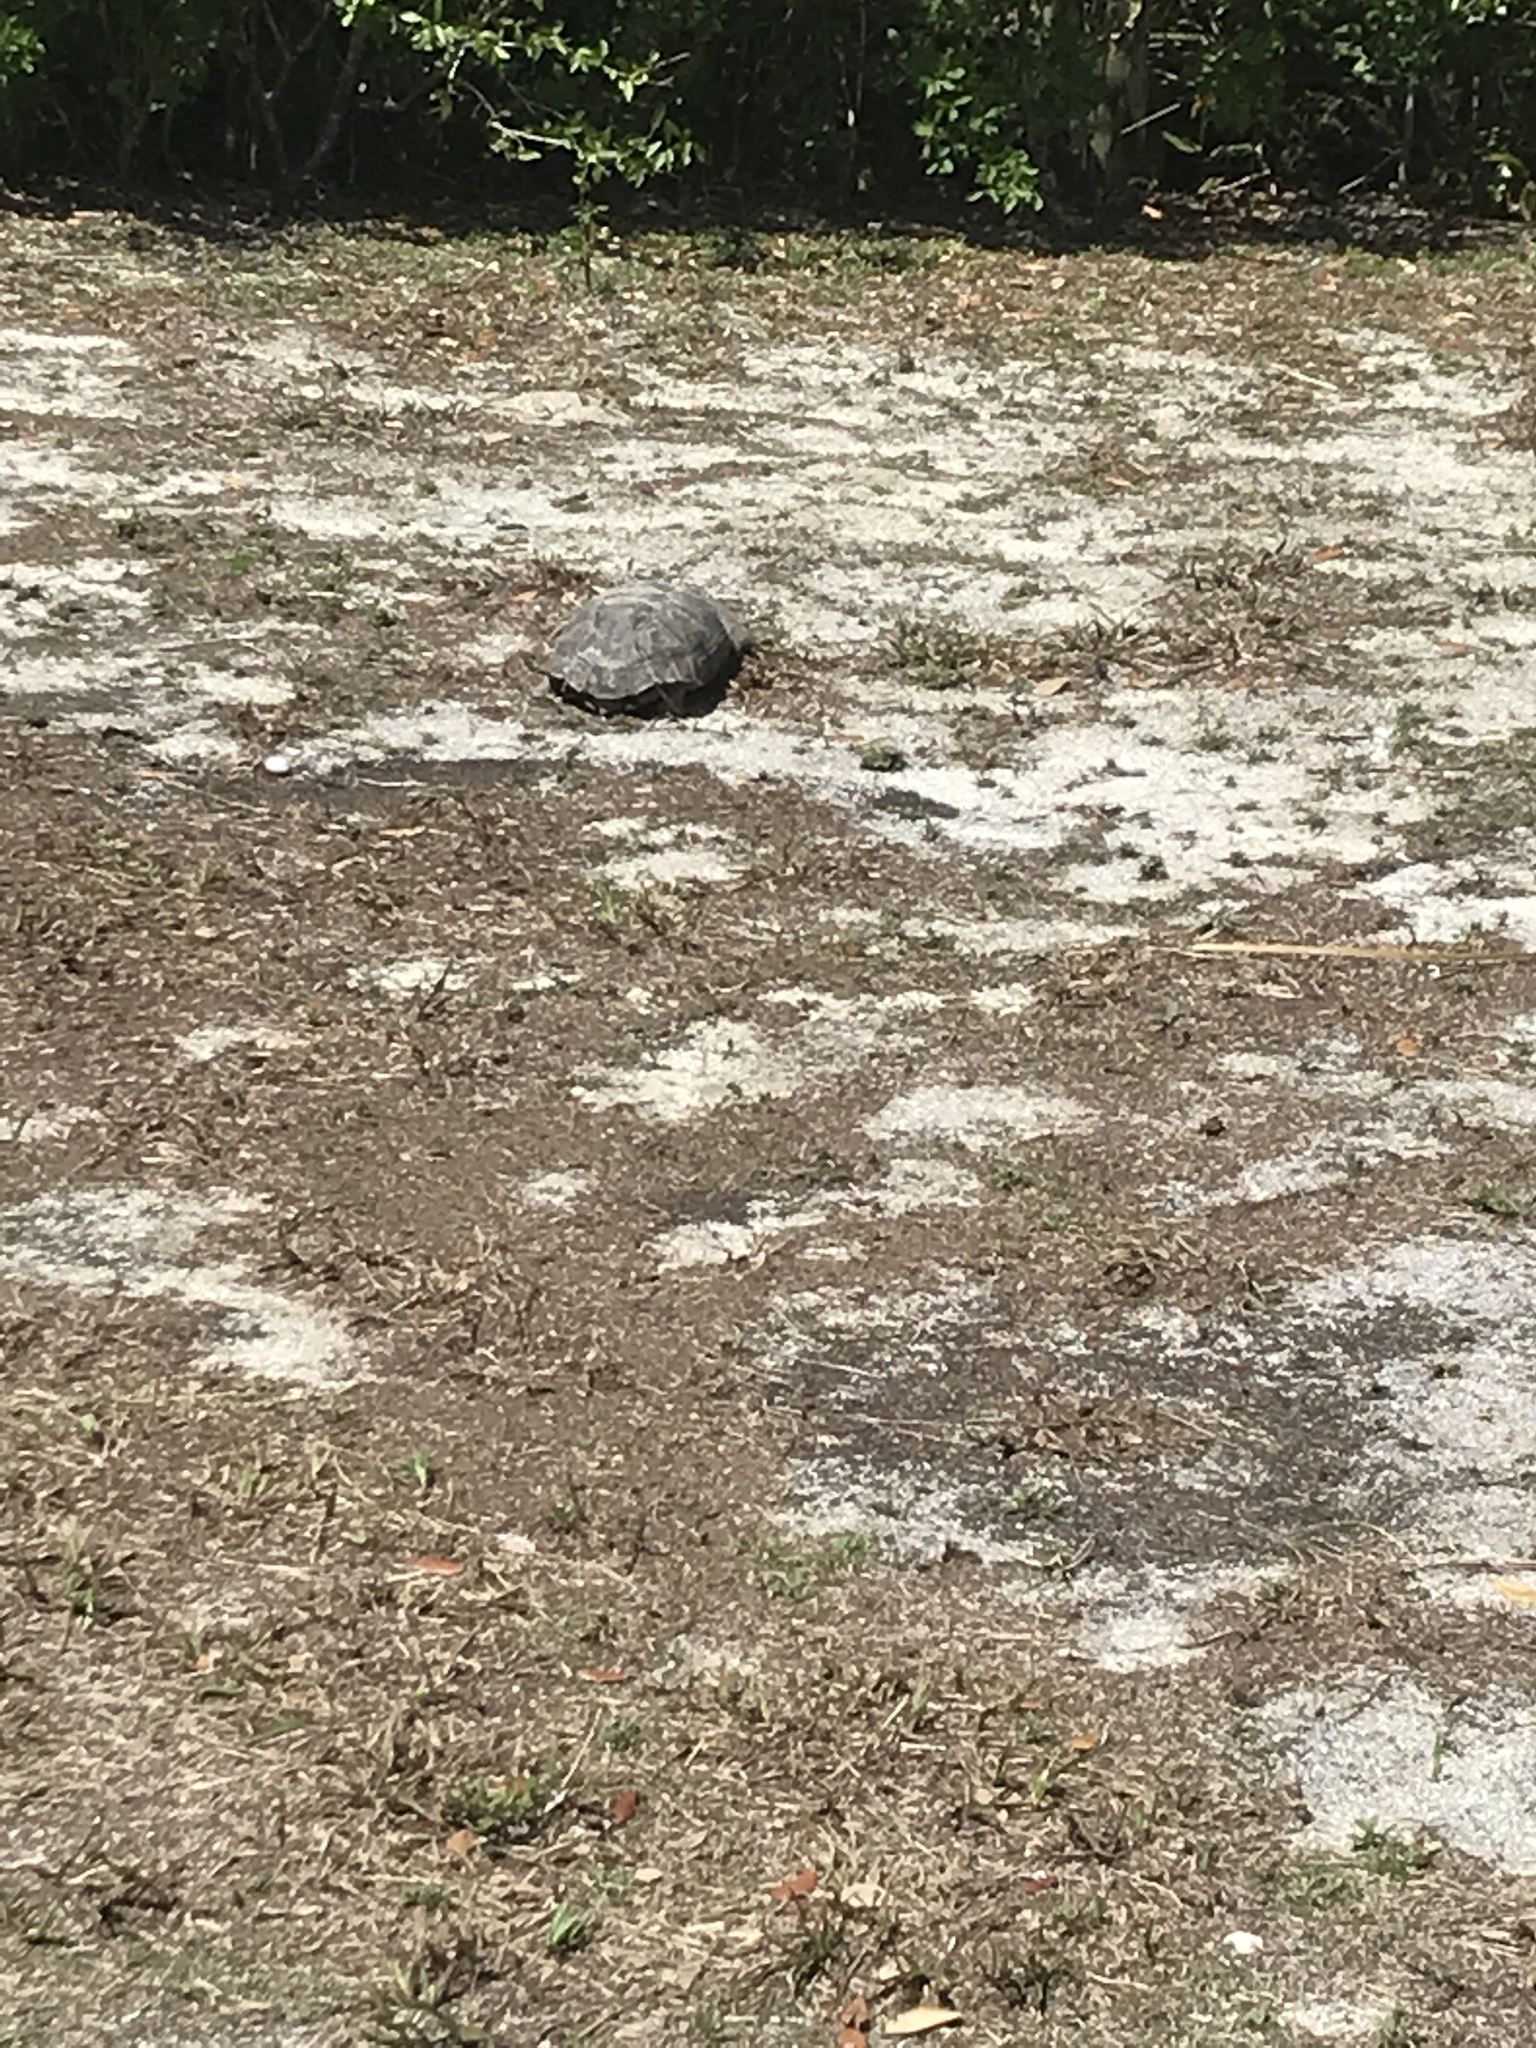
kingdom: Animalia
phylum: Chordata
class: Testudines
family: Testudinidae
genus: Gopherus
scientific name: Gopherus polyphemus
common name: Florida gopher tortoise
